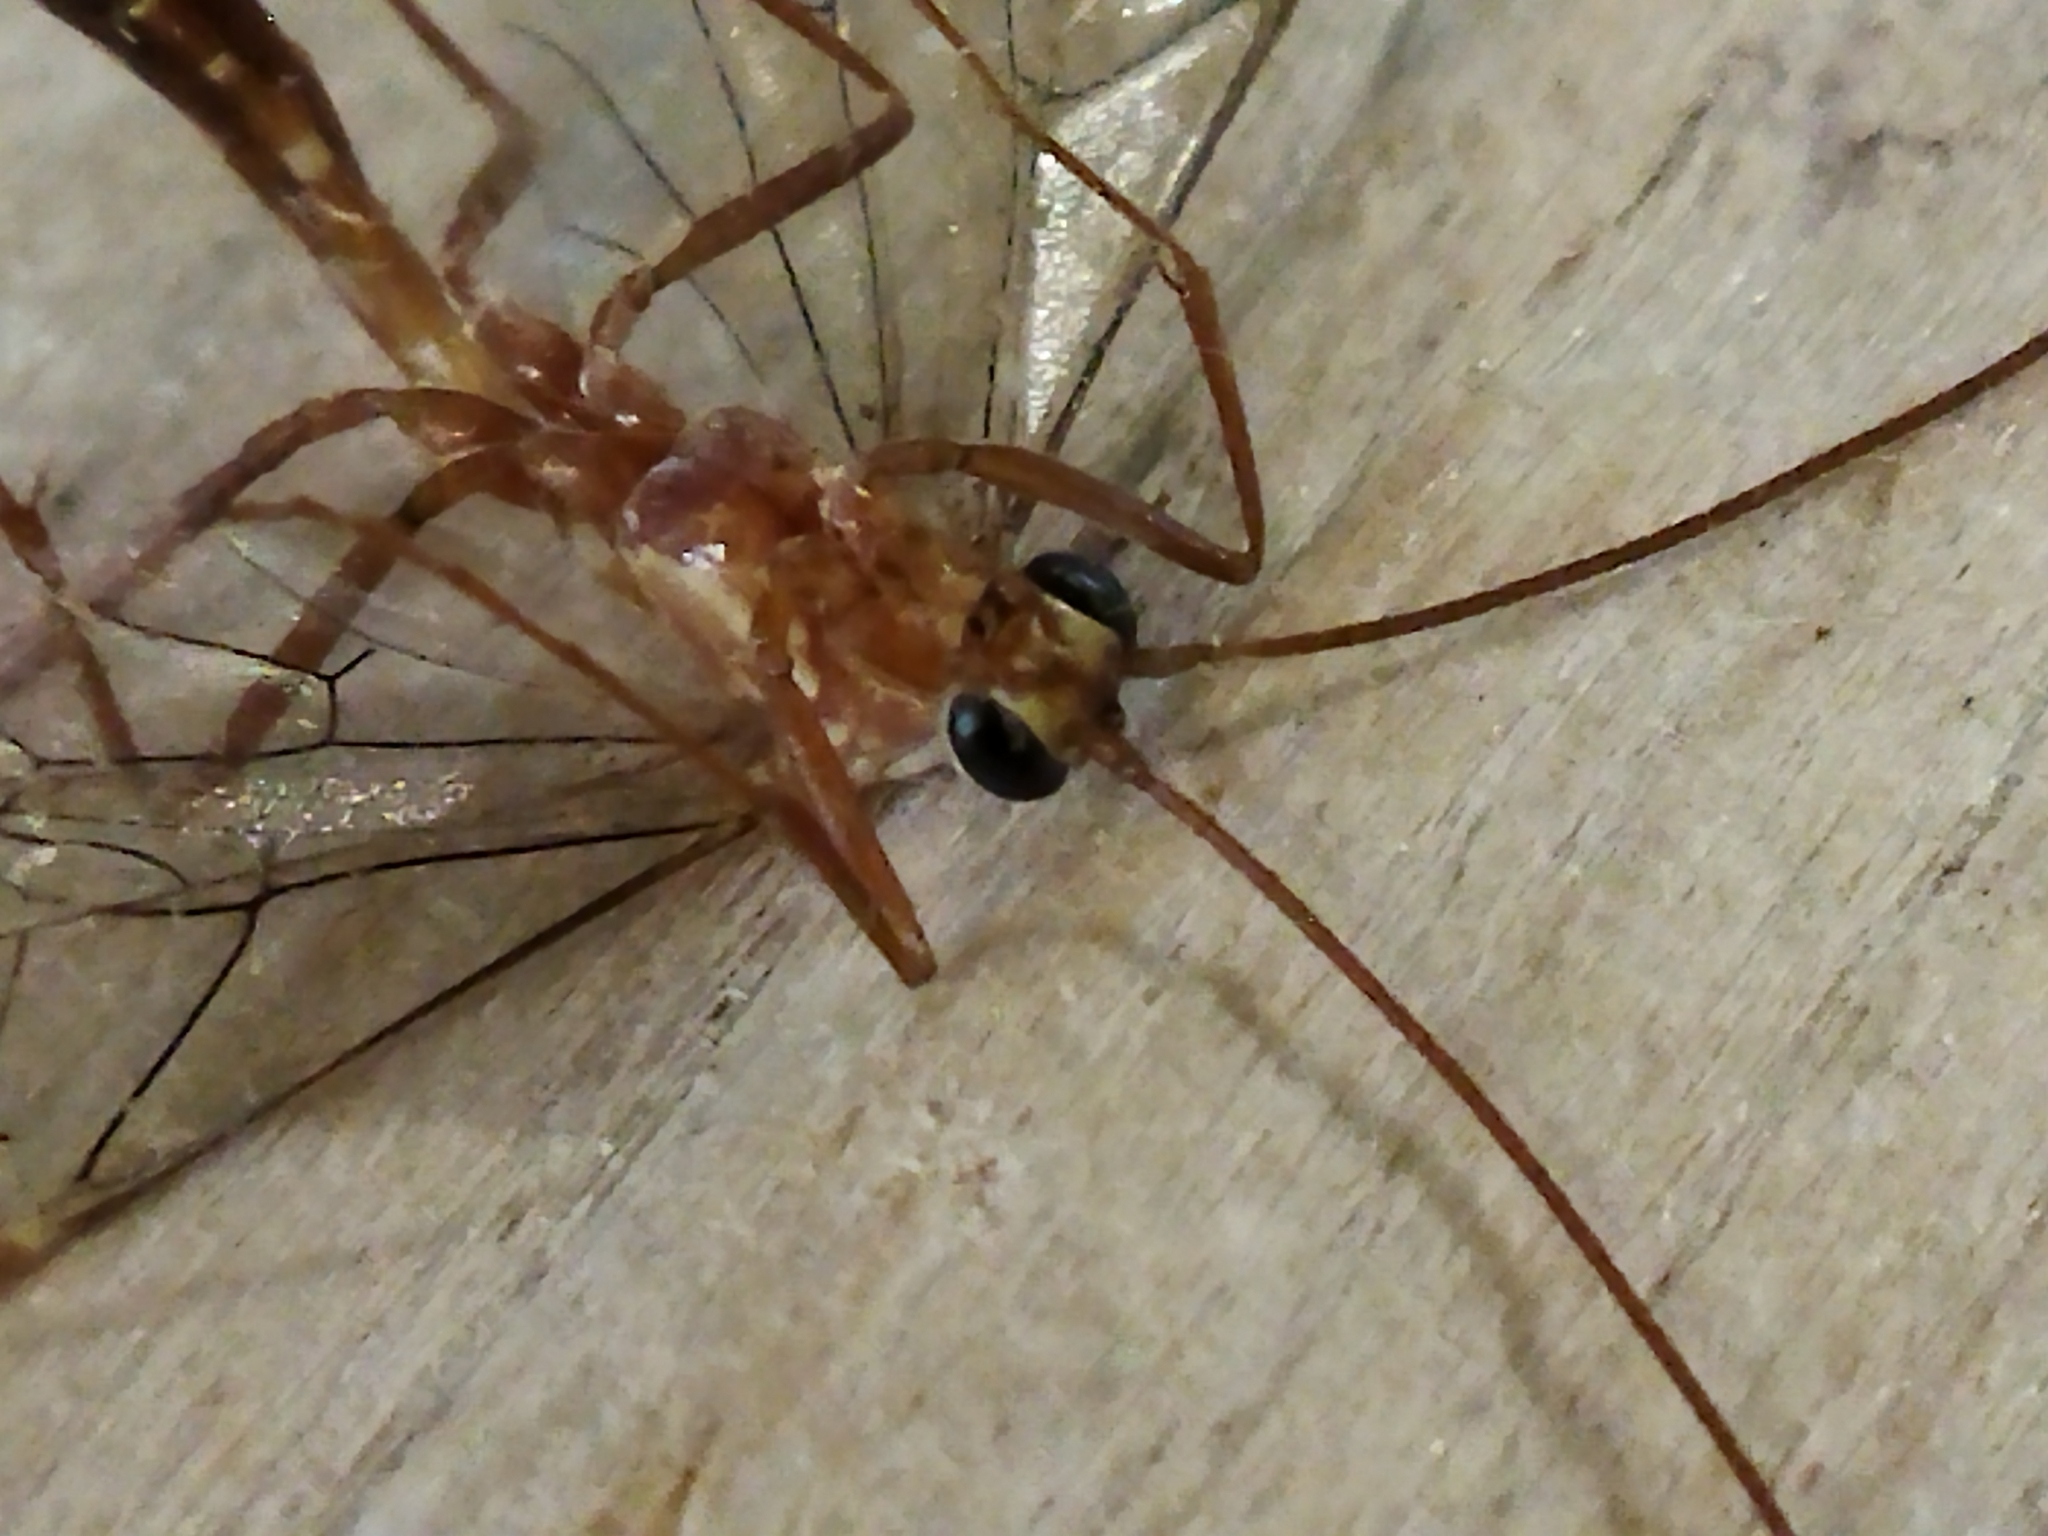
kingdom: Animalia
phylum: Arthropoda
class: Insecta
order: Hymenoptera
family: Ichneumonidae
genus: Ophion
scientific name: Ophion
